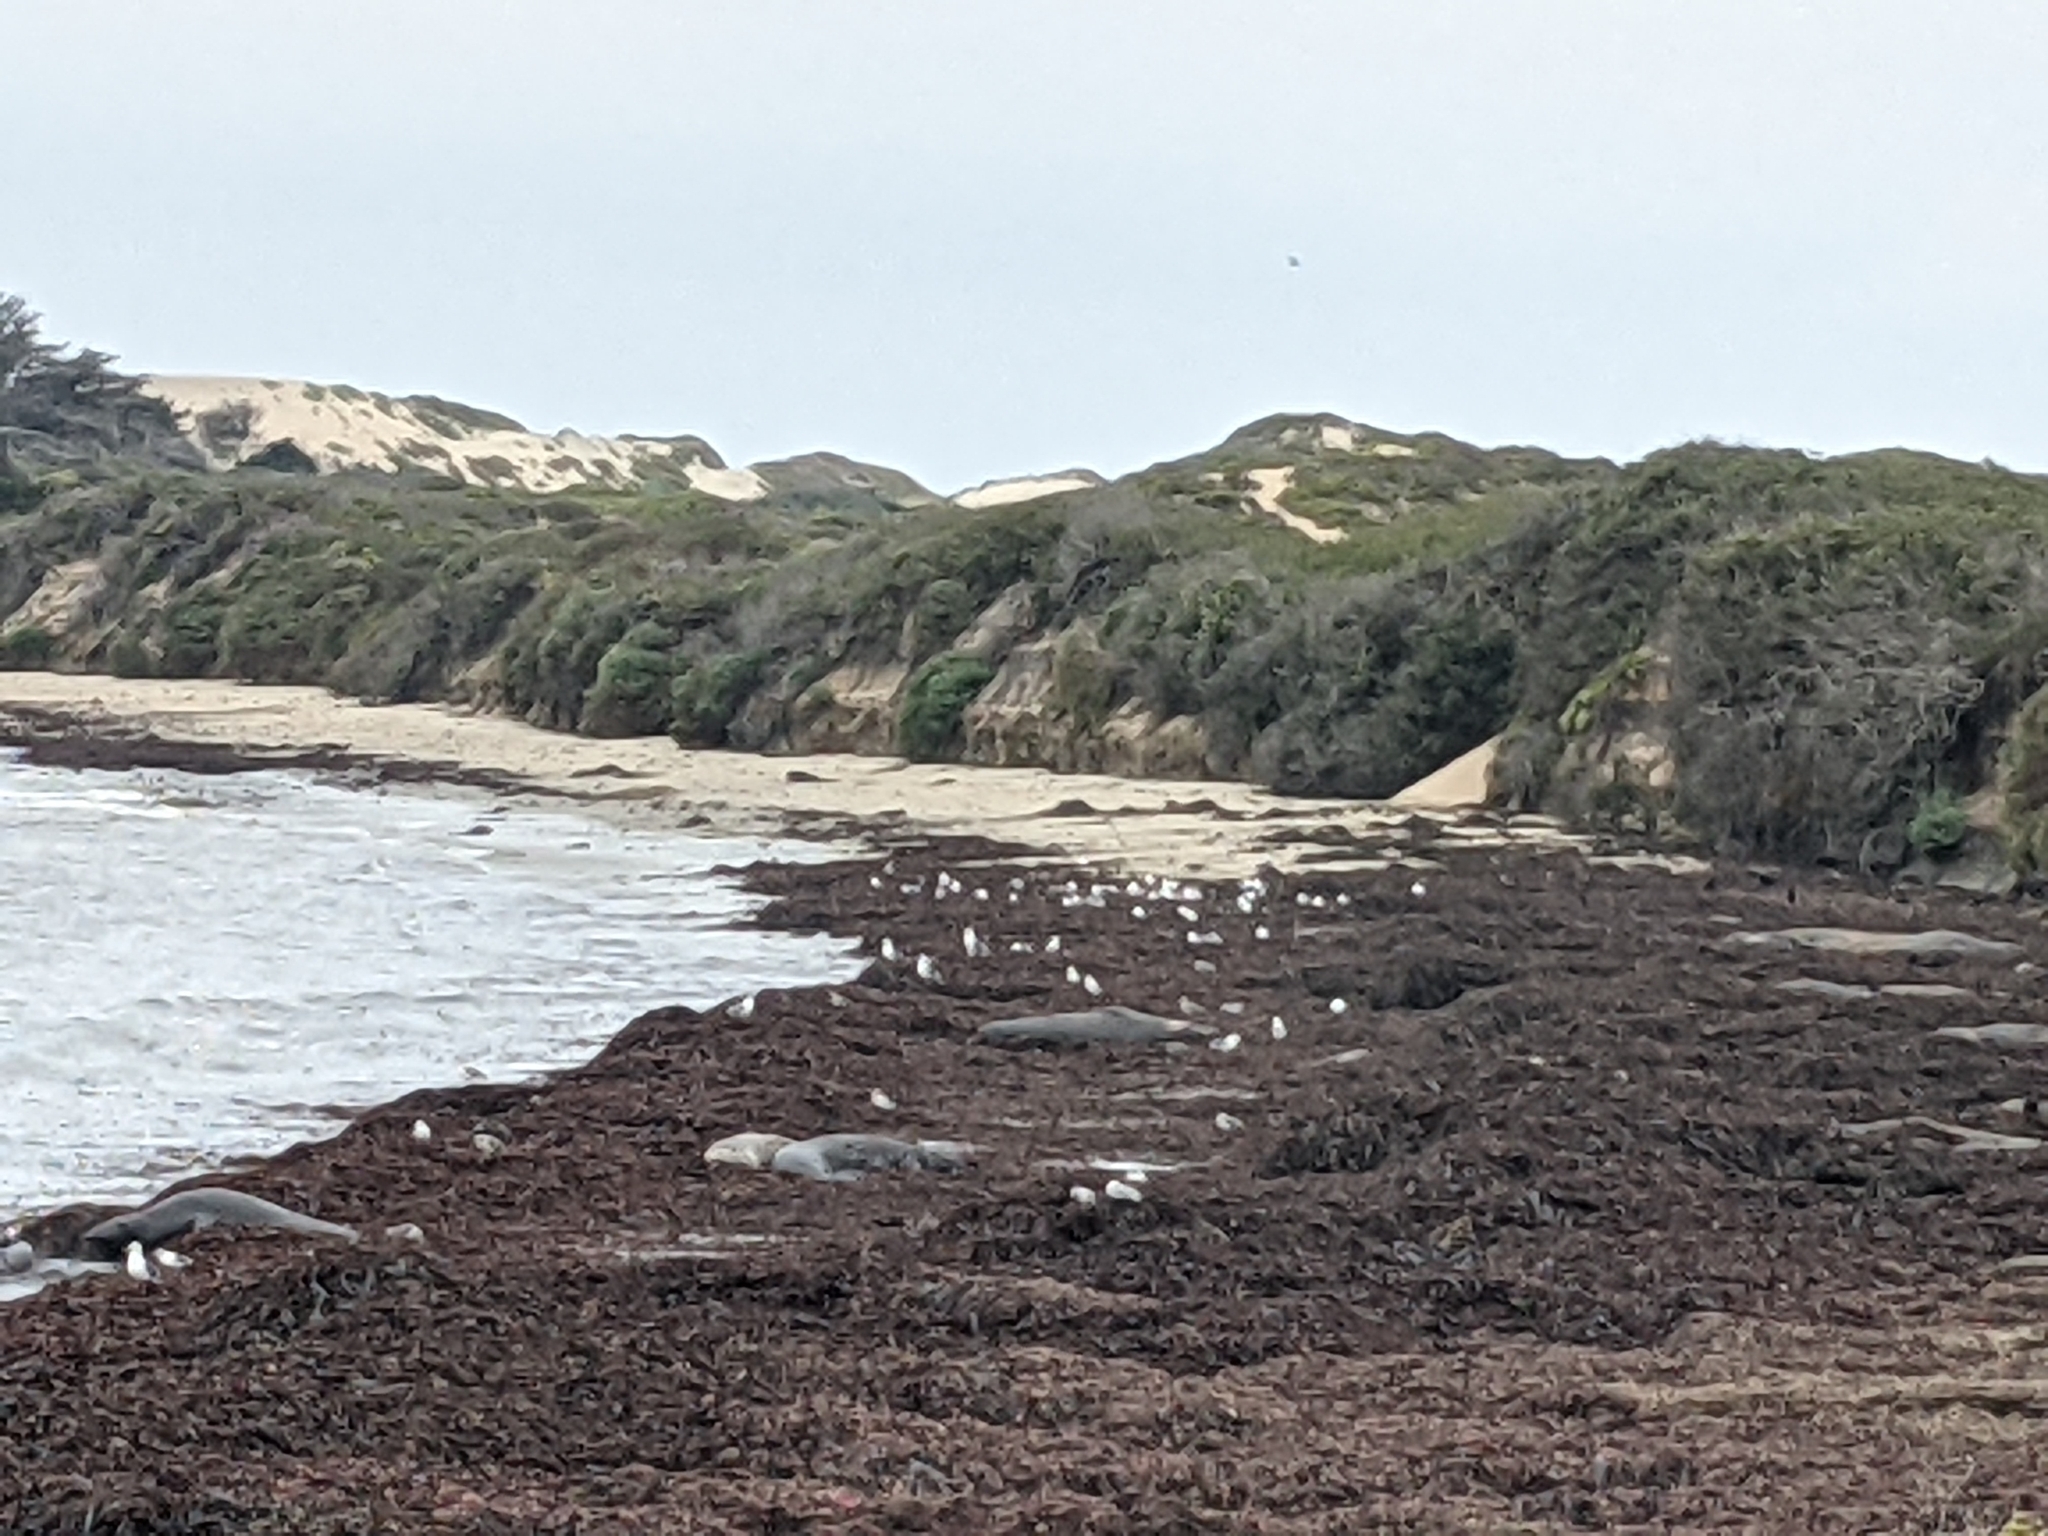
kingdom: Animalia
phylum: Chordata
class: Mammalia
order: Carnivora
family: Phocidae
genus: Mirounga
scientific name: Mirounga angustirostris
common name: Northern elephant seal
